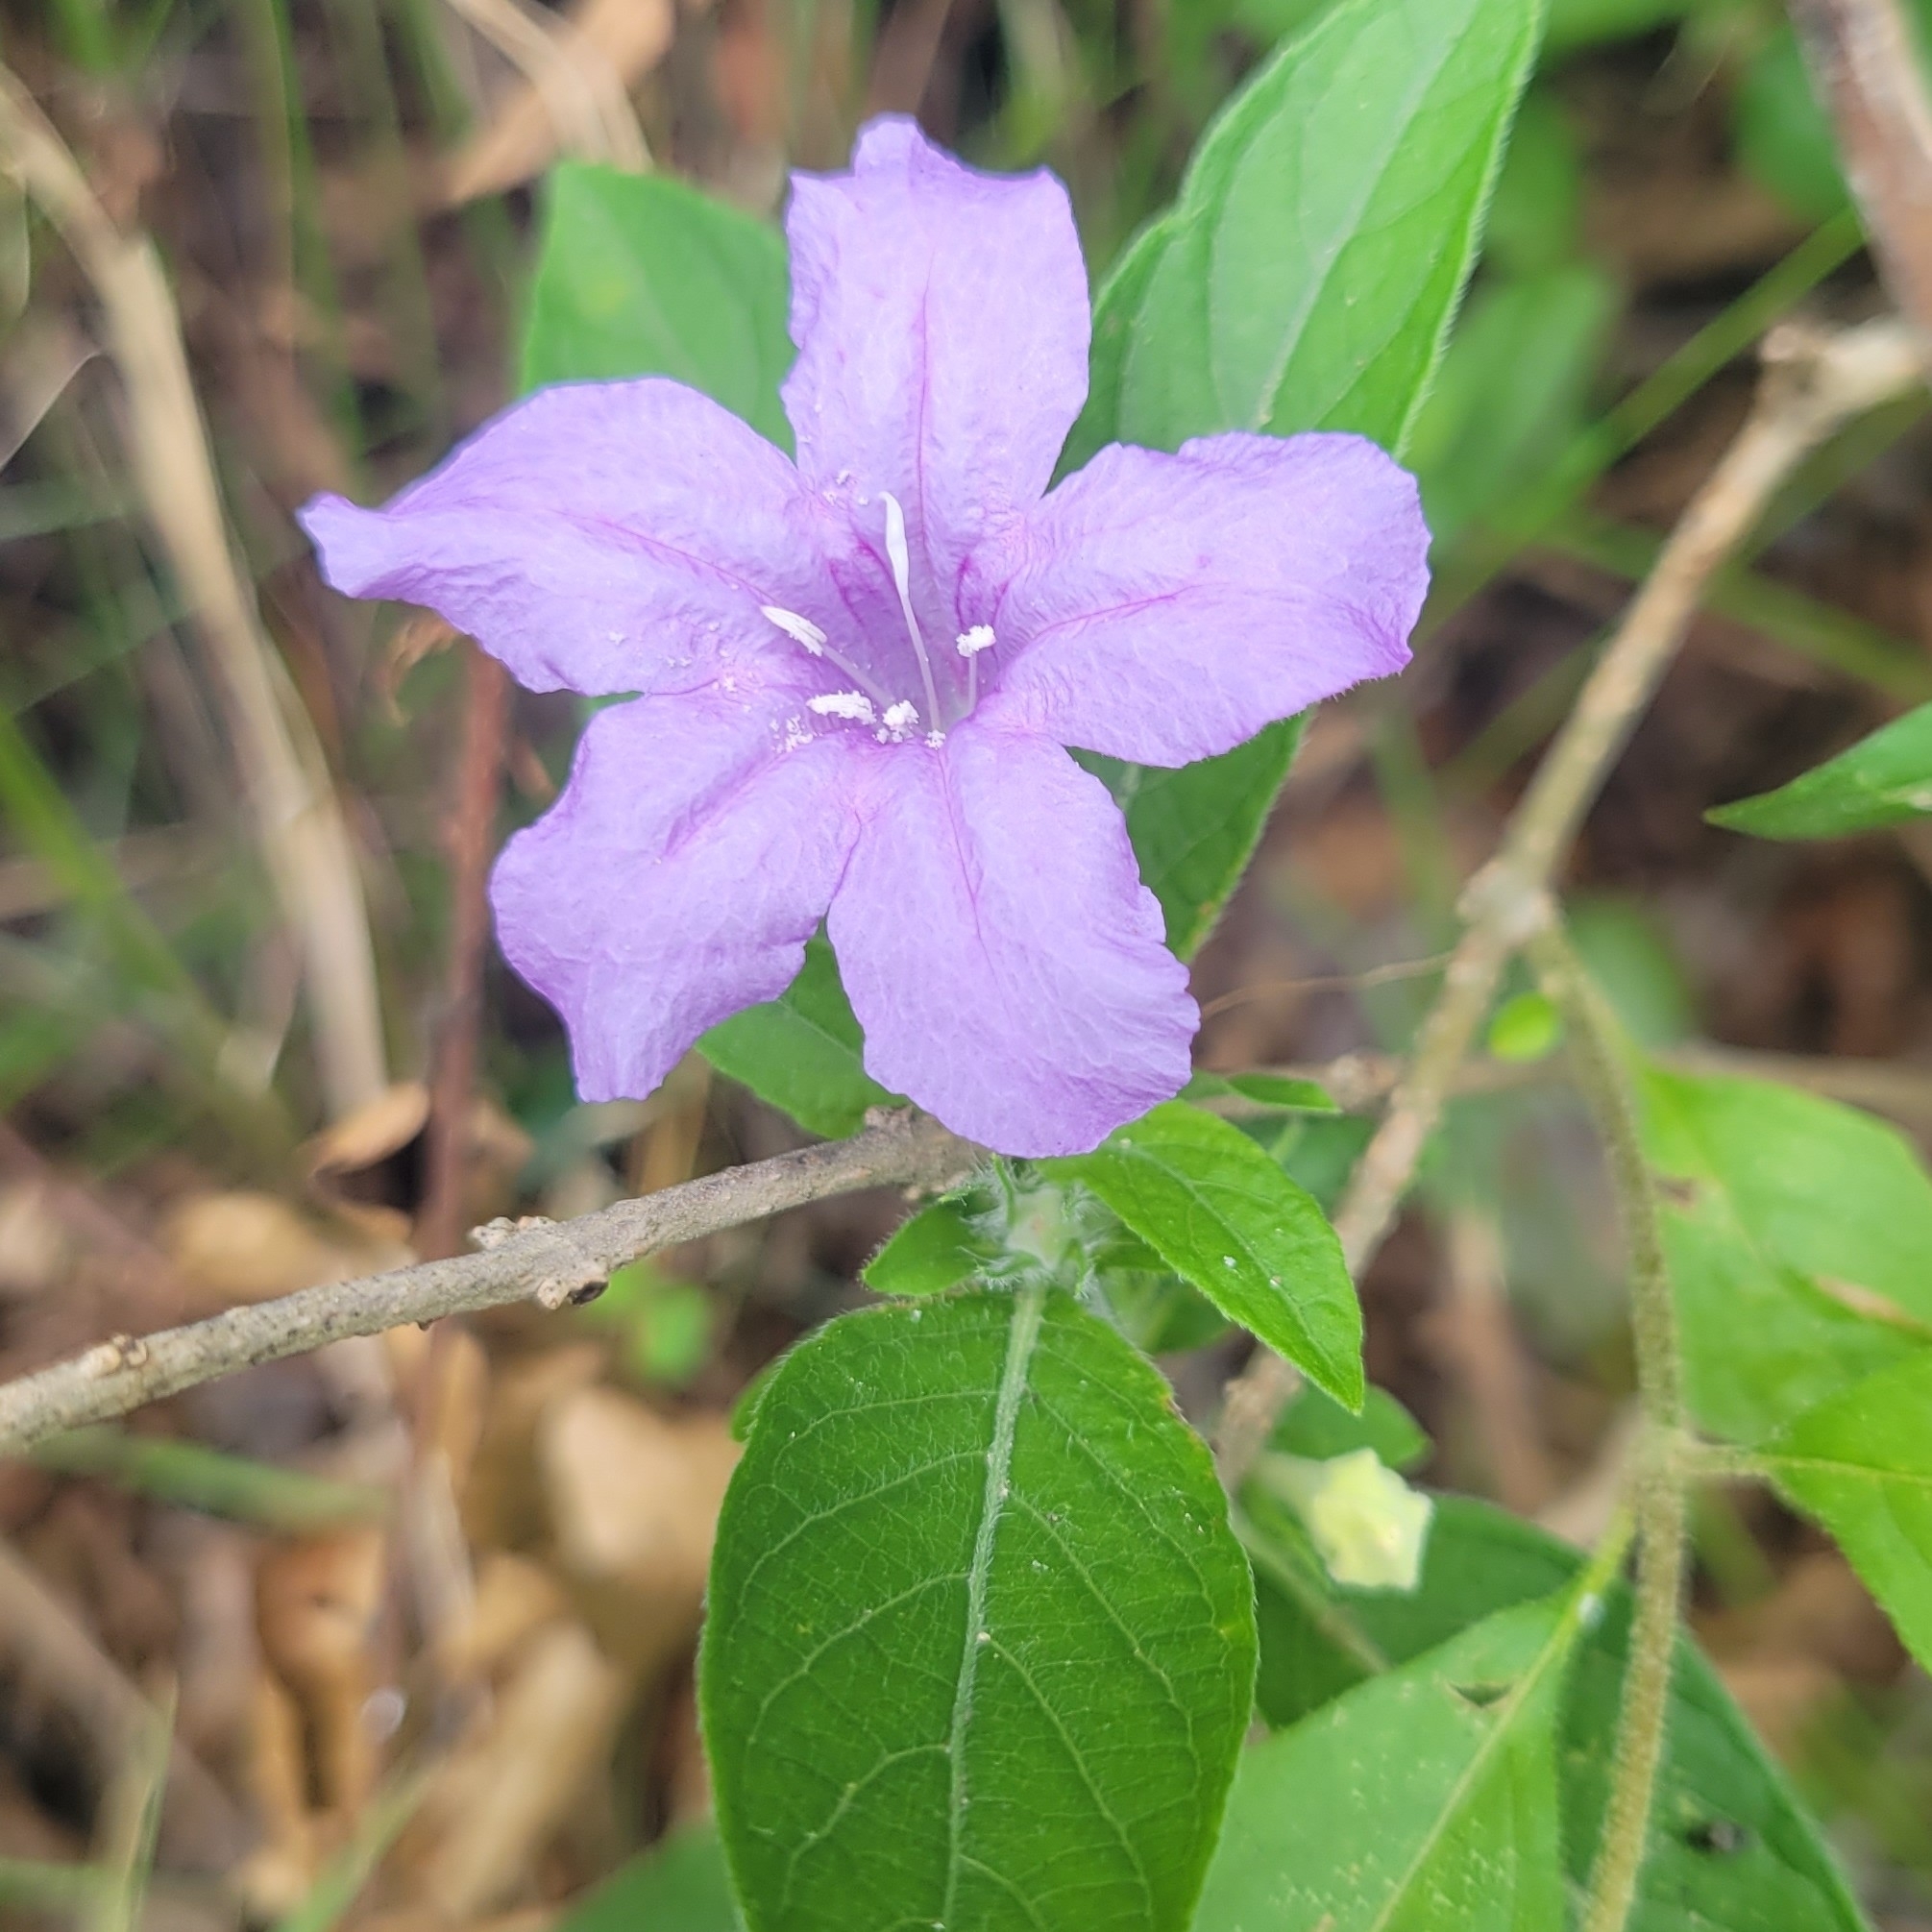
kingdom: Plantae
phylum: Tracheophyta
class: Magnoliopsida
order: Lamiales
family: Acanthaceae
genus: Ruellia
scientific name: Ruellia caroliniensis
